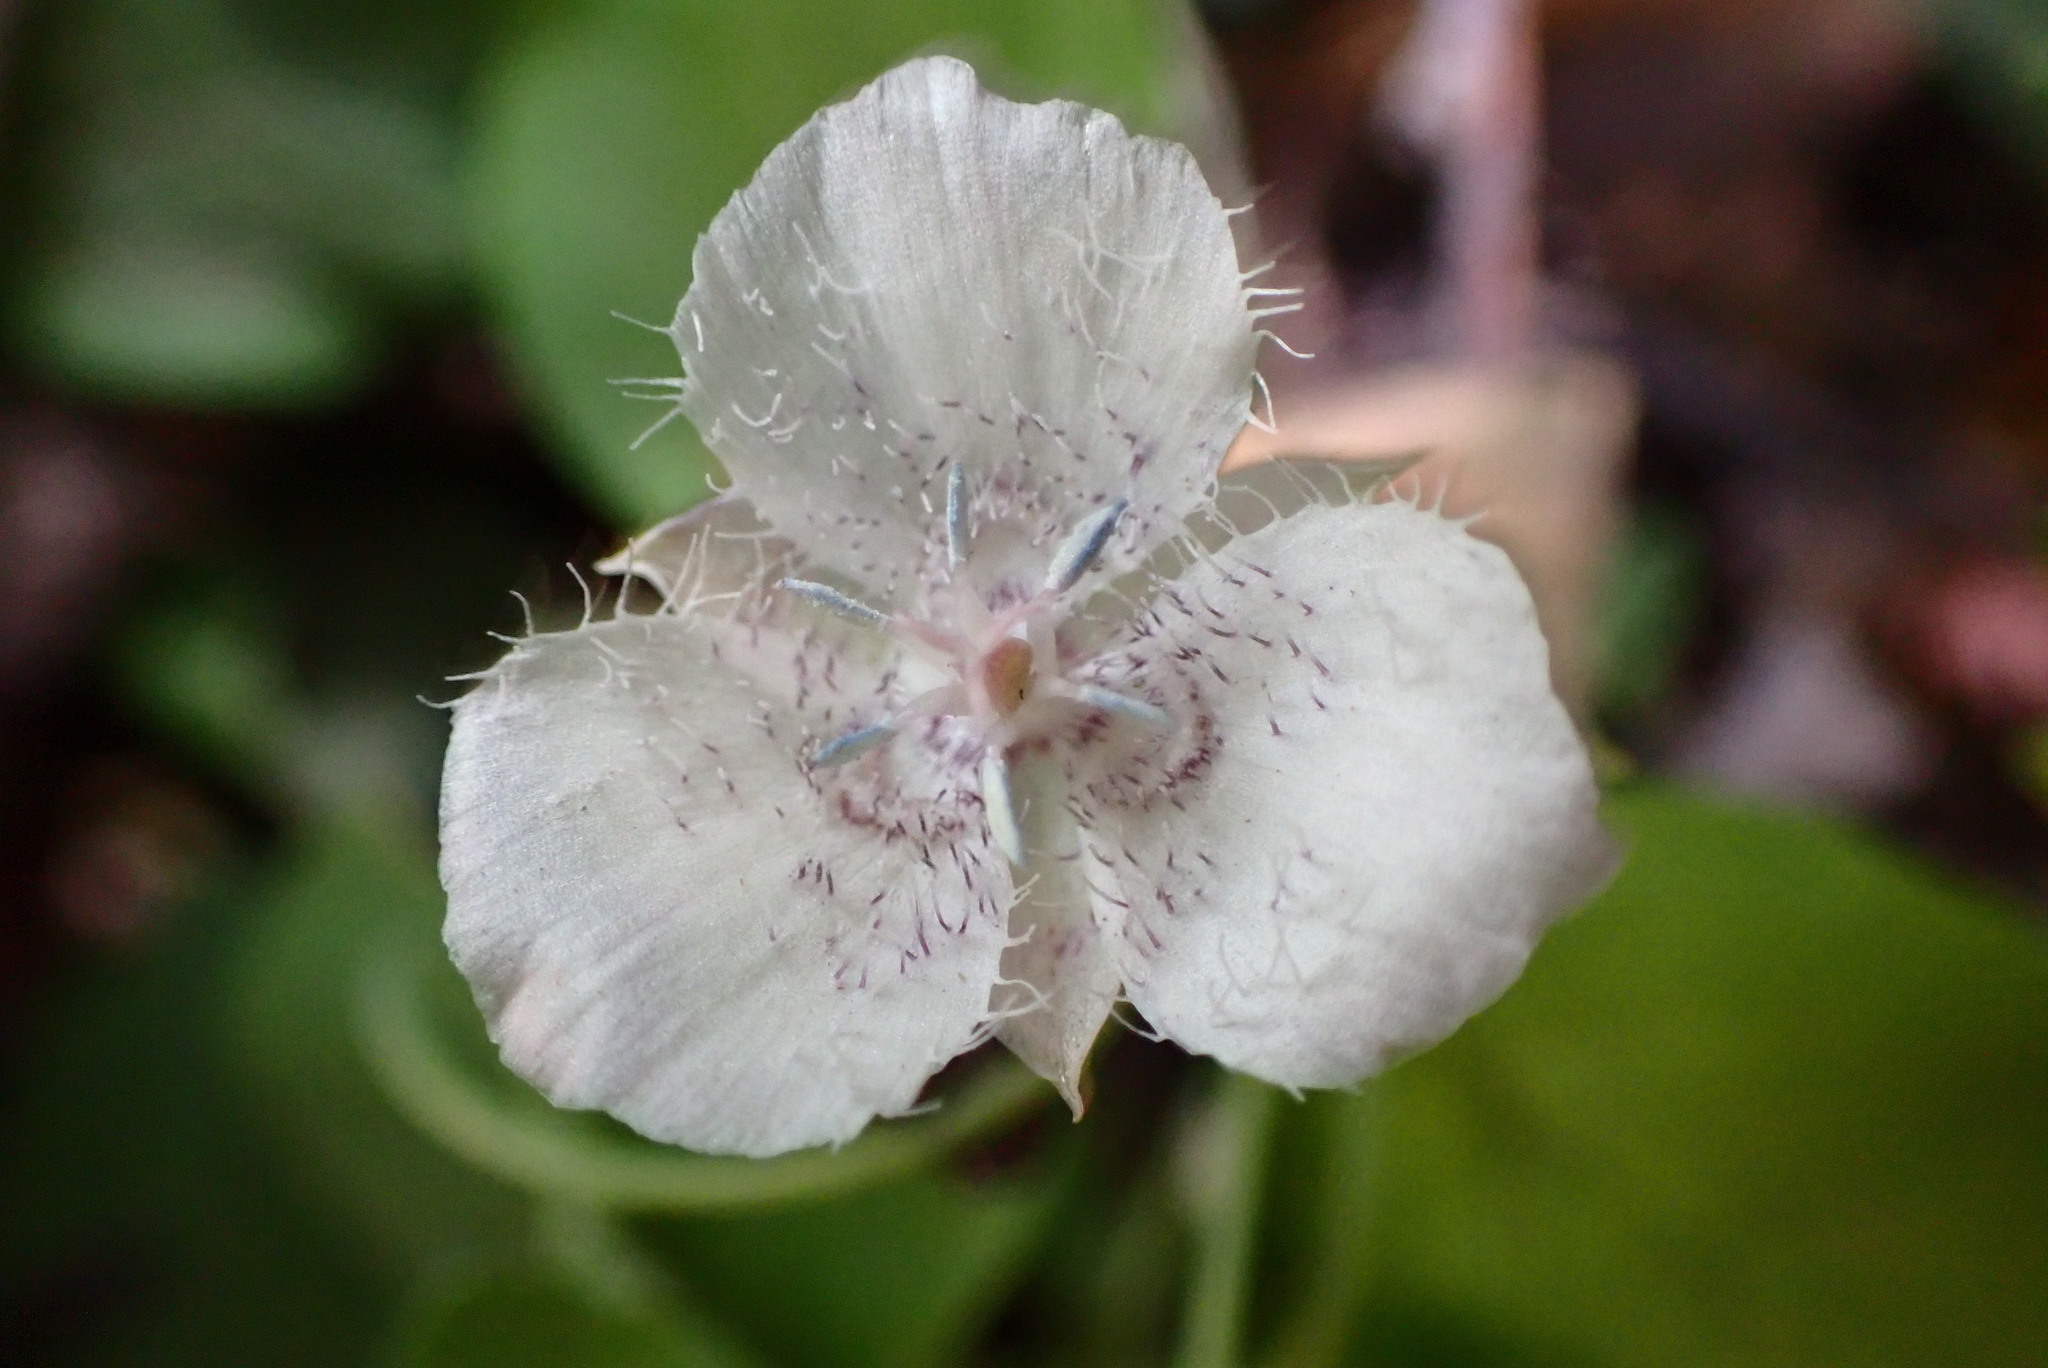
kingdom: Plantae
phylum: Tracheophyta
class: Liliopsida
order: Liliales
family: Liliaceae
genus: Calochortus
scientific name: Calochortus tolmiei
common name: Pussy-ears
